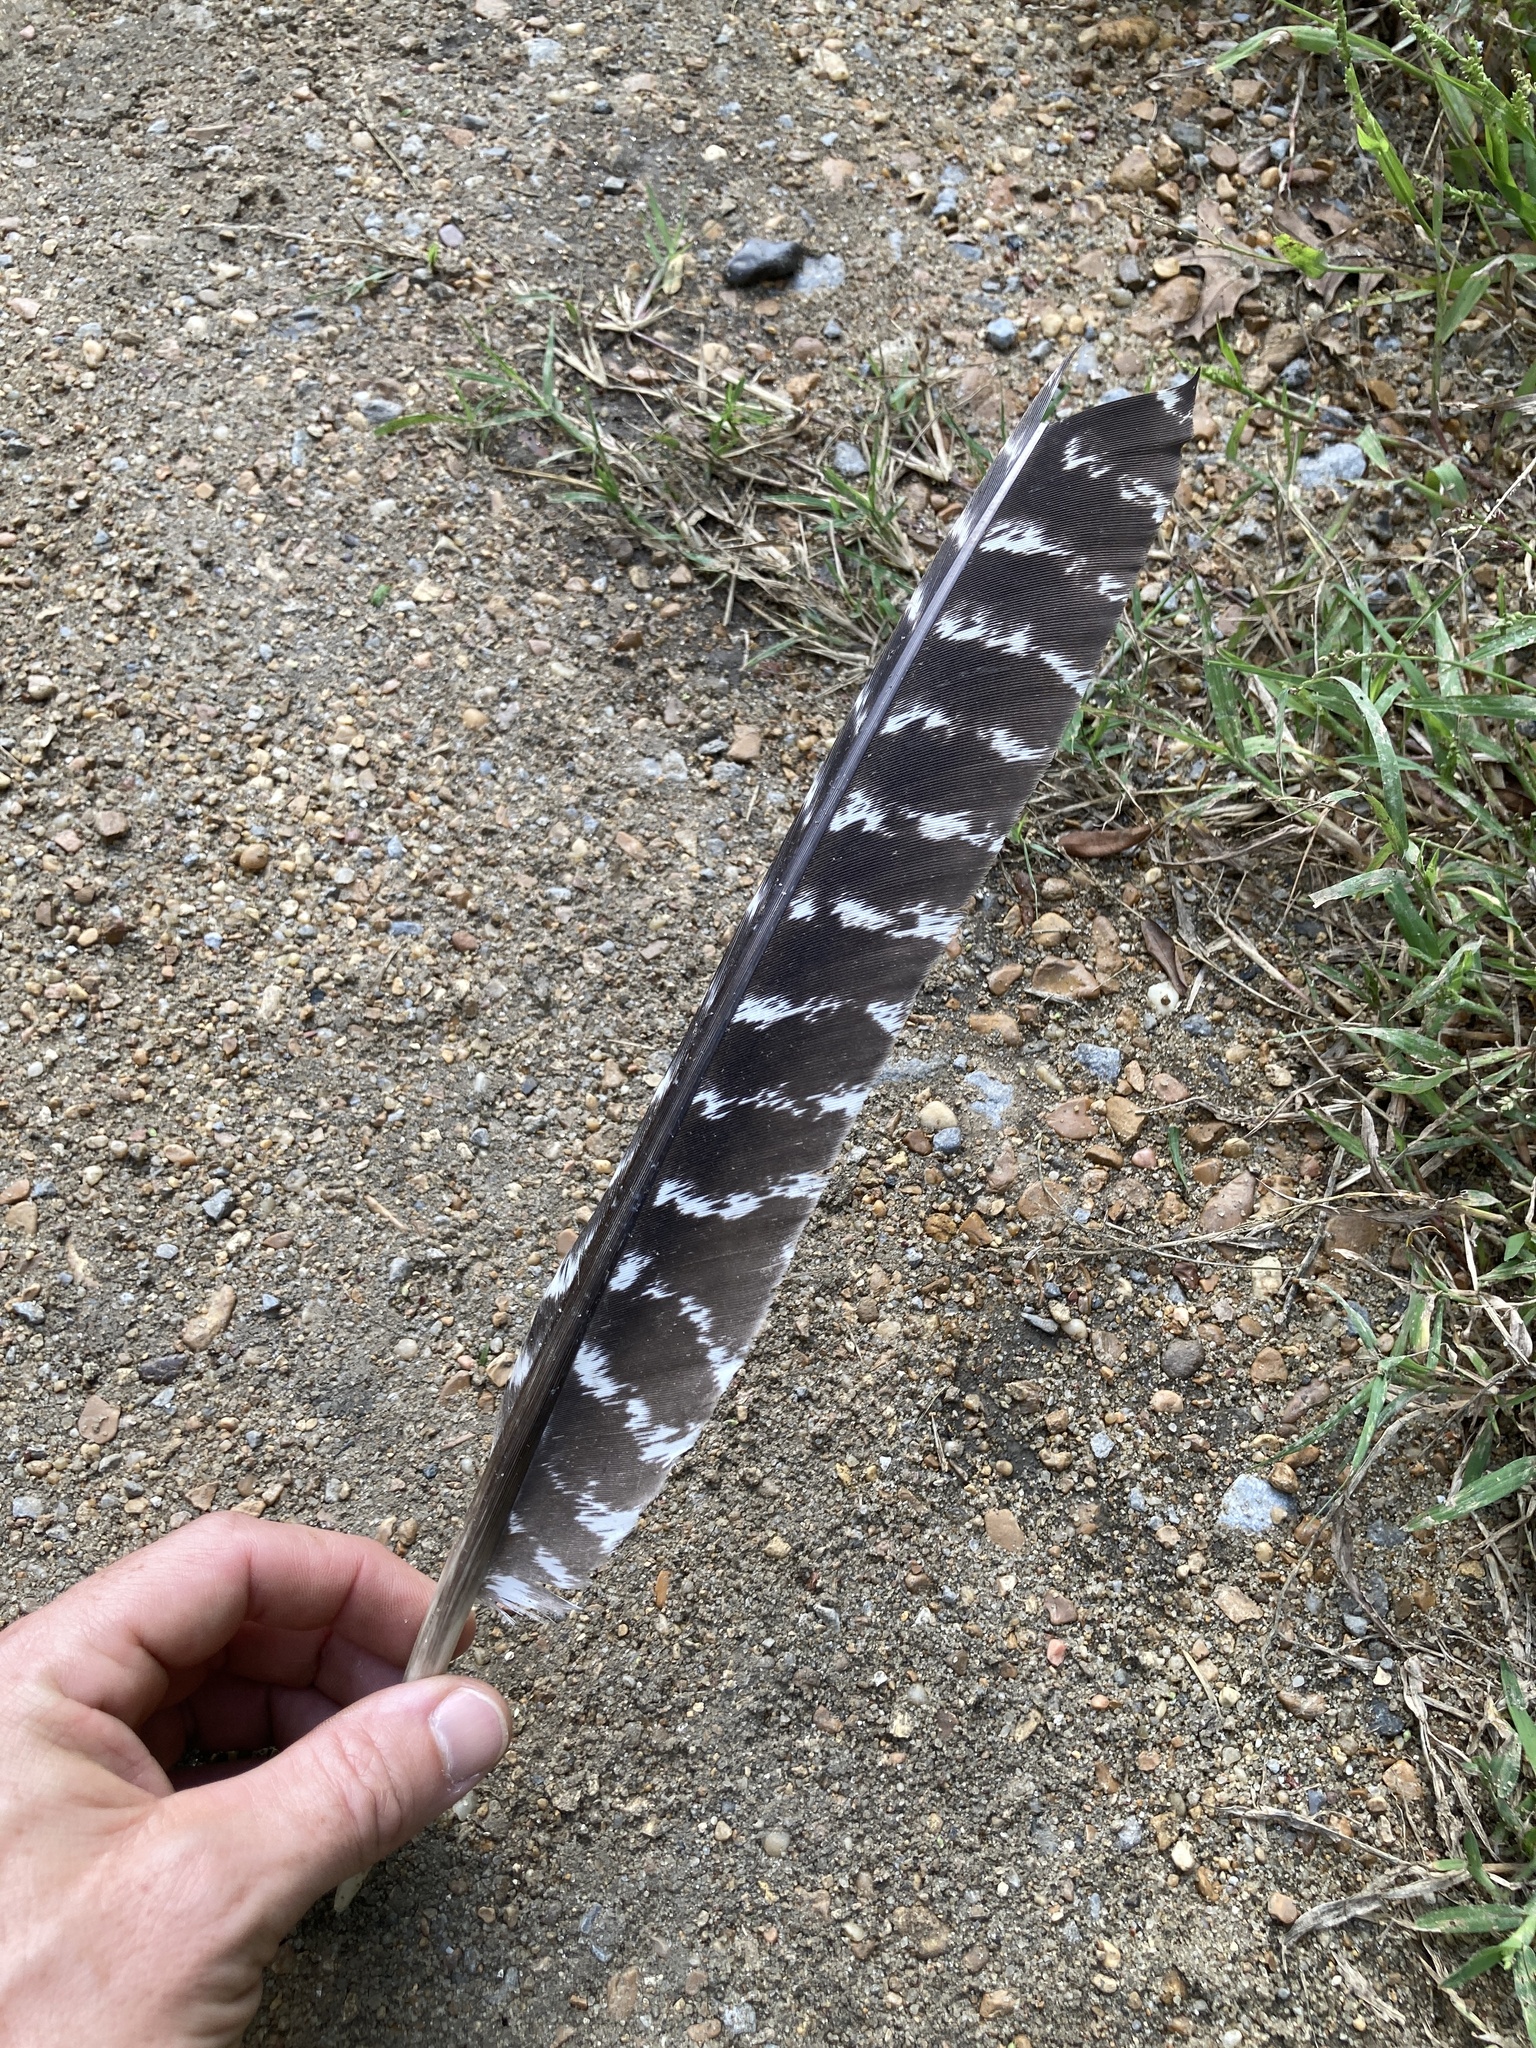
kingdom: Animalia
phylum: Chordata
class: Aves
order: Galliformes
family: Phasianidae
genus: Meleagris
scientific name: Meleagris gallopavo
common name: Wild turkey
